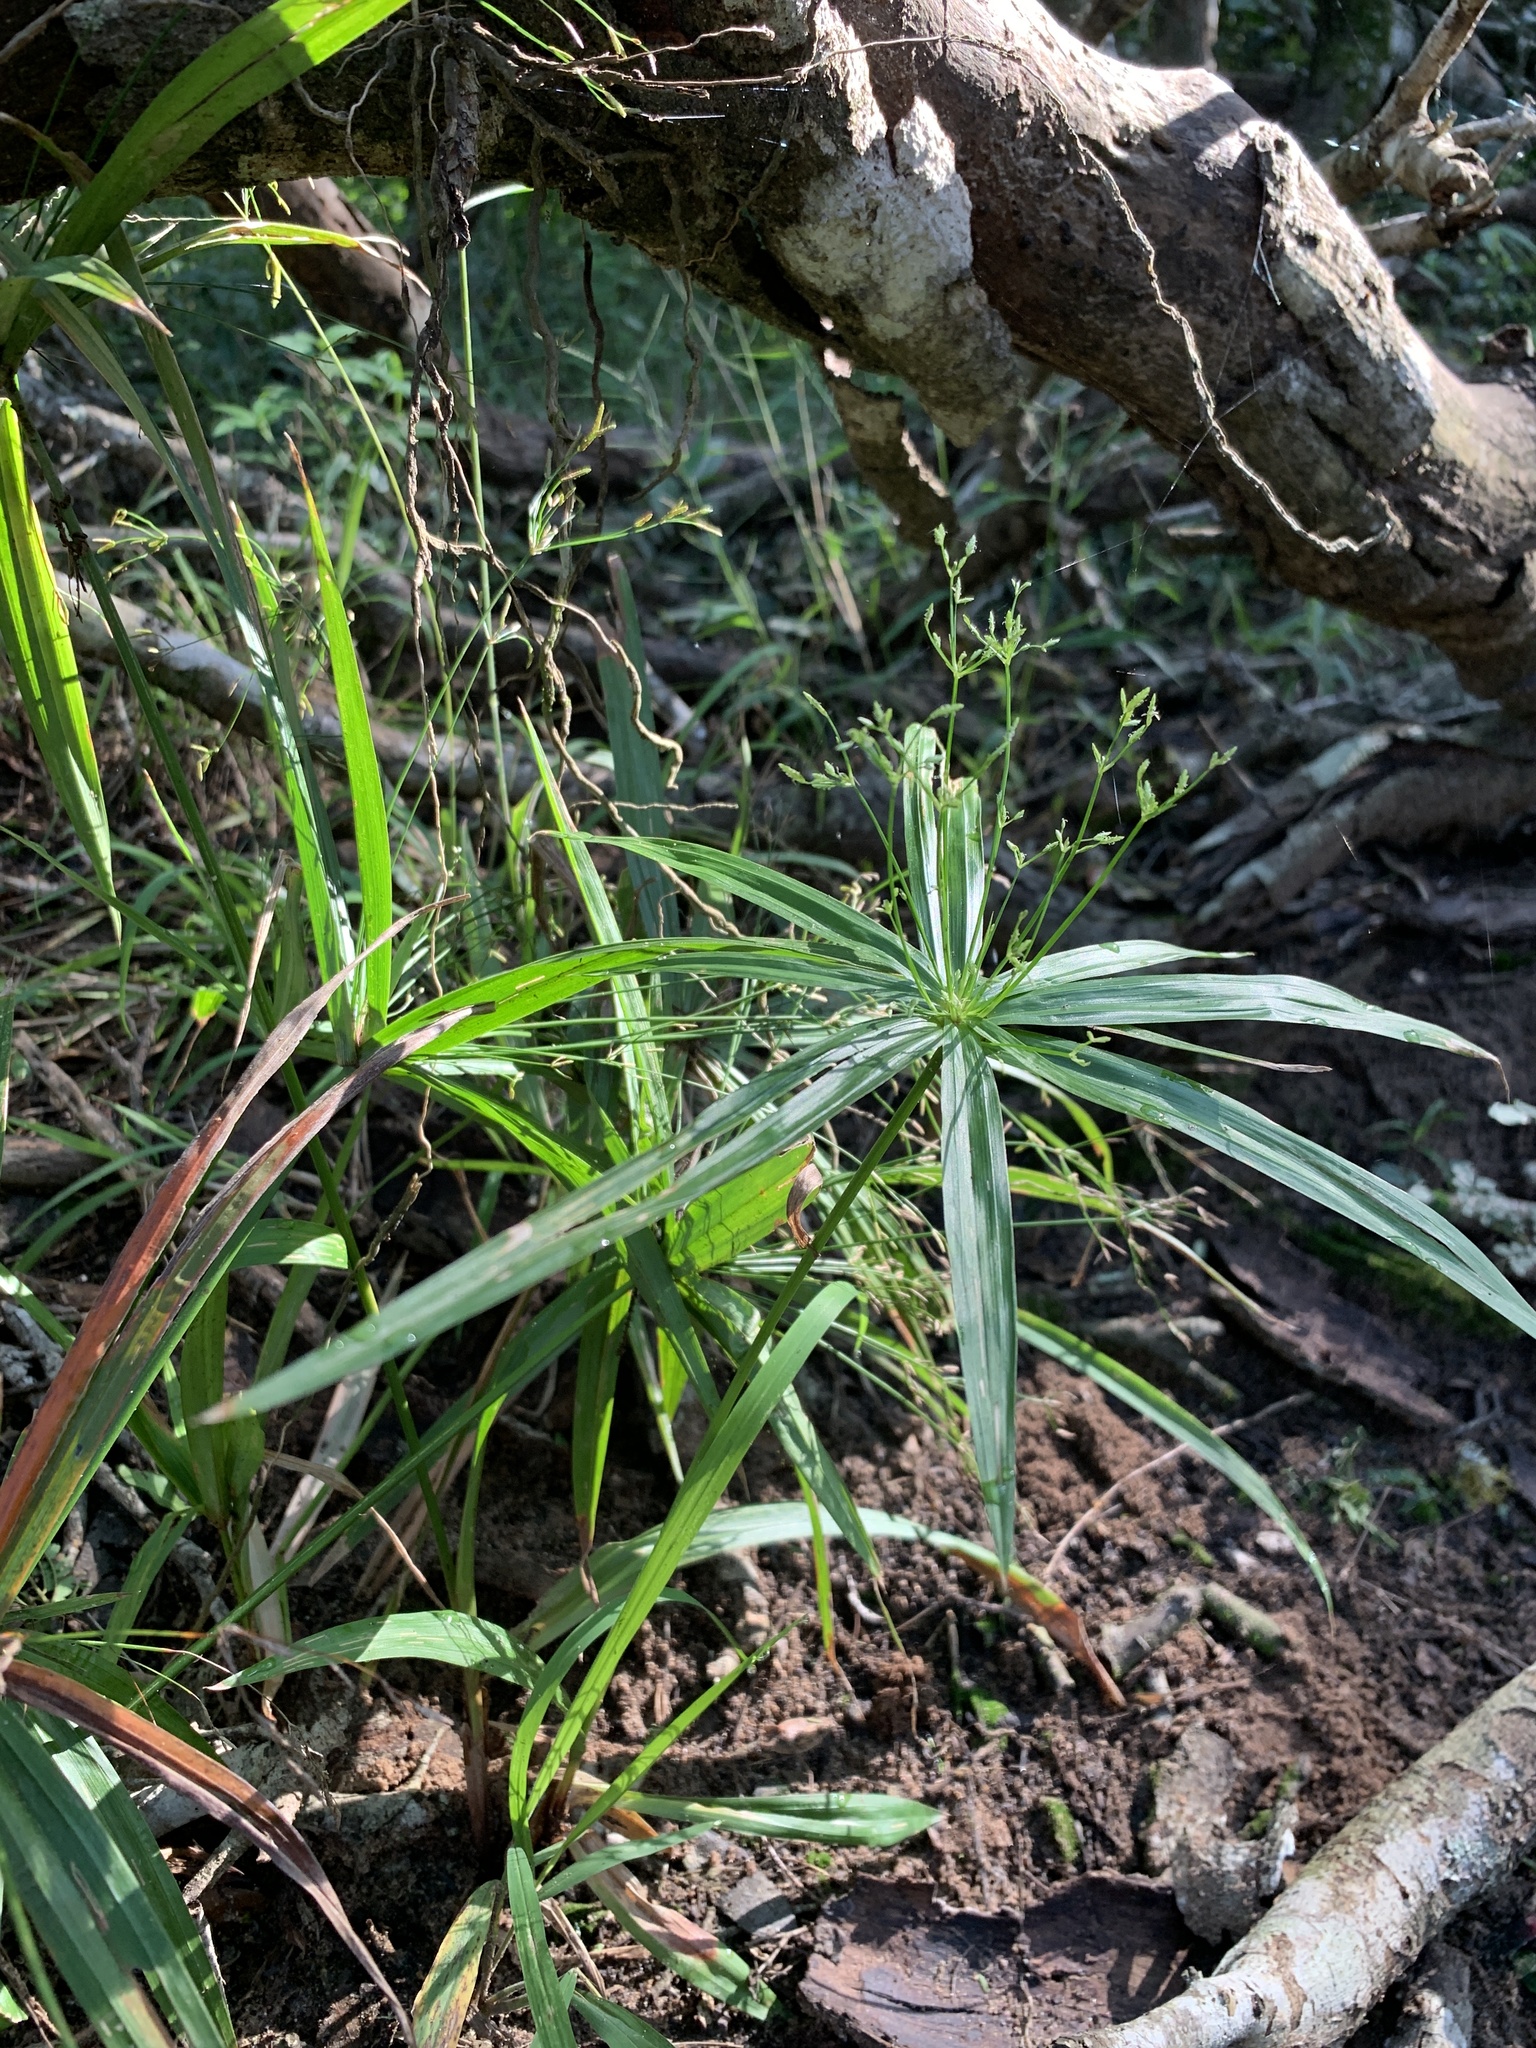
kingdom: Plantae
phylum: Tracheophyta
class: Liliopsida
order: Poales
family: Cyperaceae
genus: Cyperus
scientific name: Cyperus albostriatus
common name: Dwarf umbrella-grass
